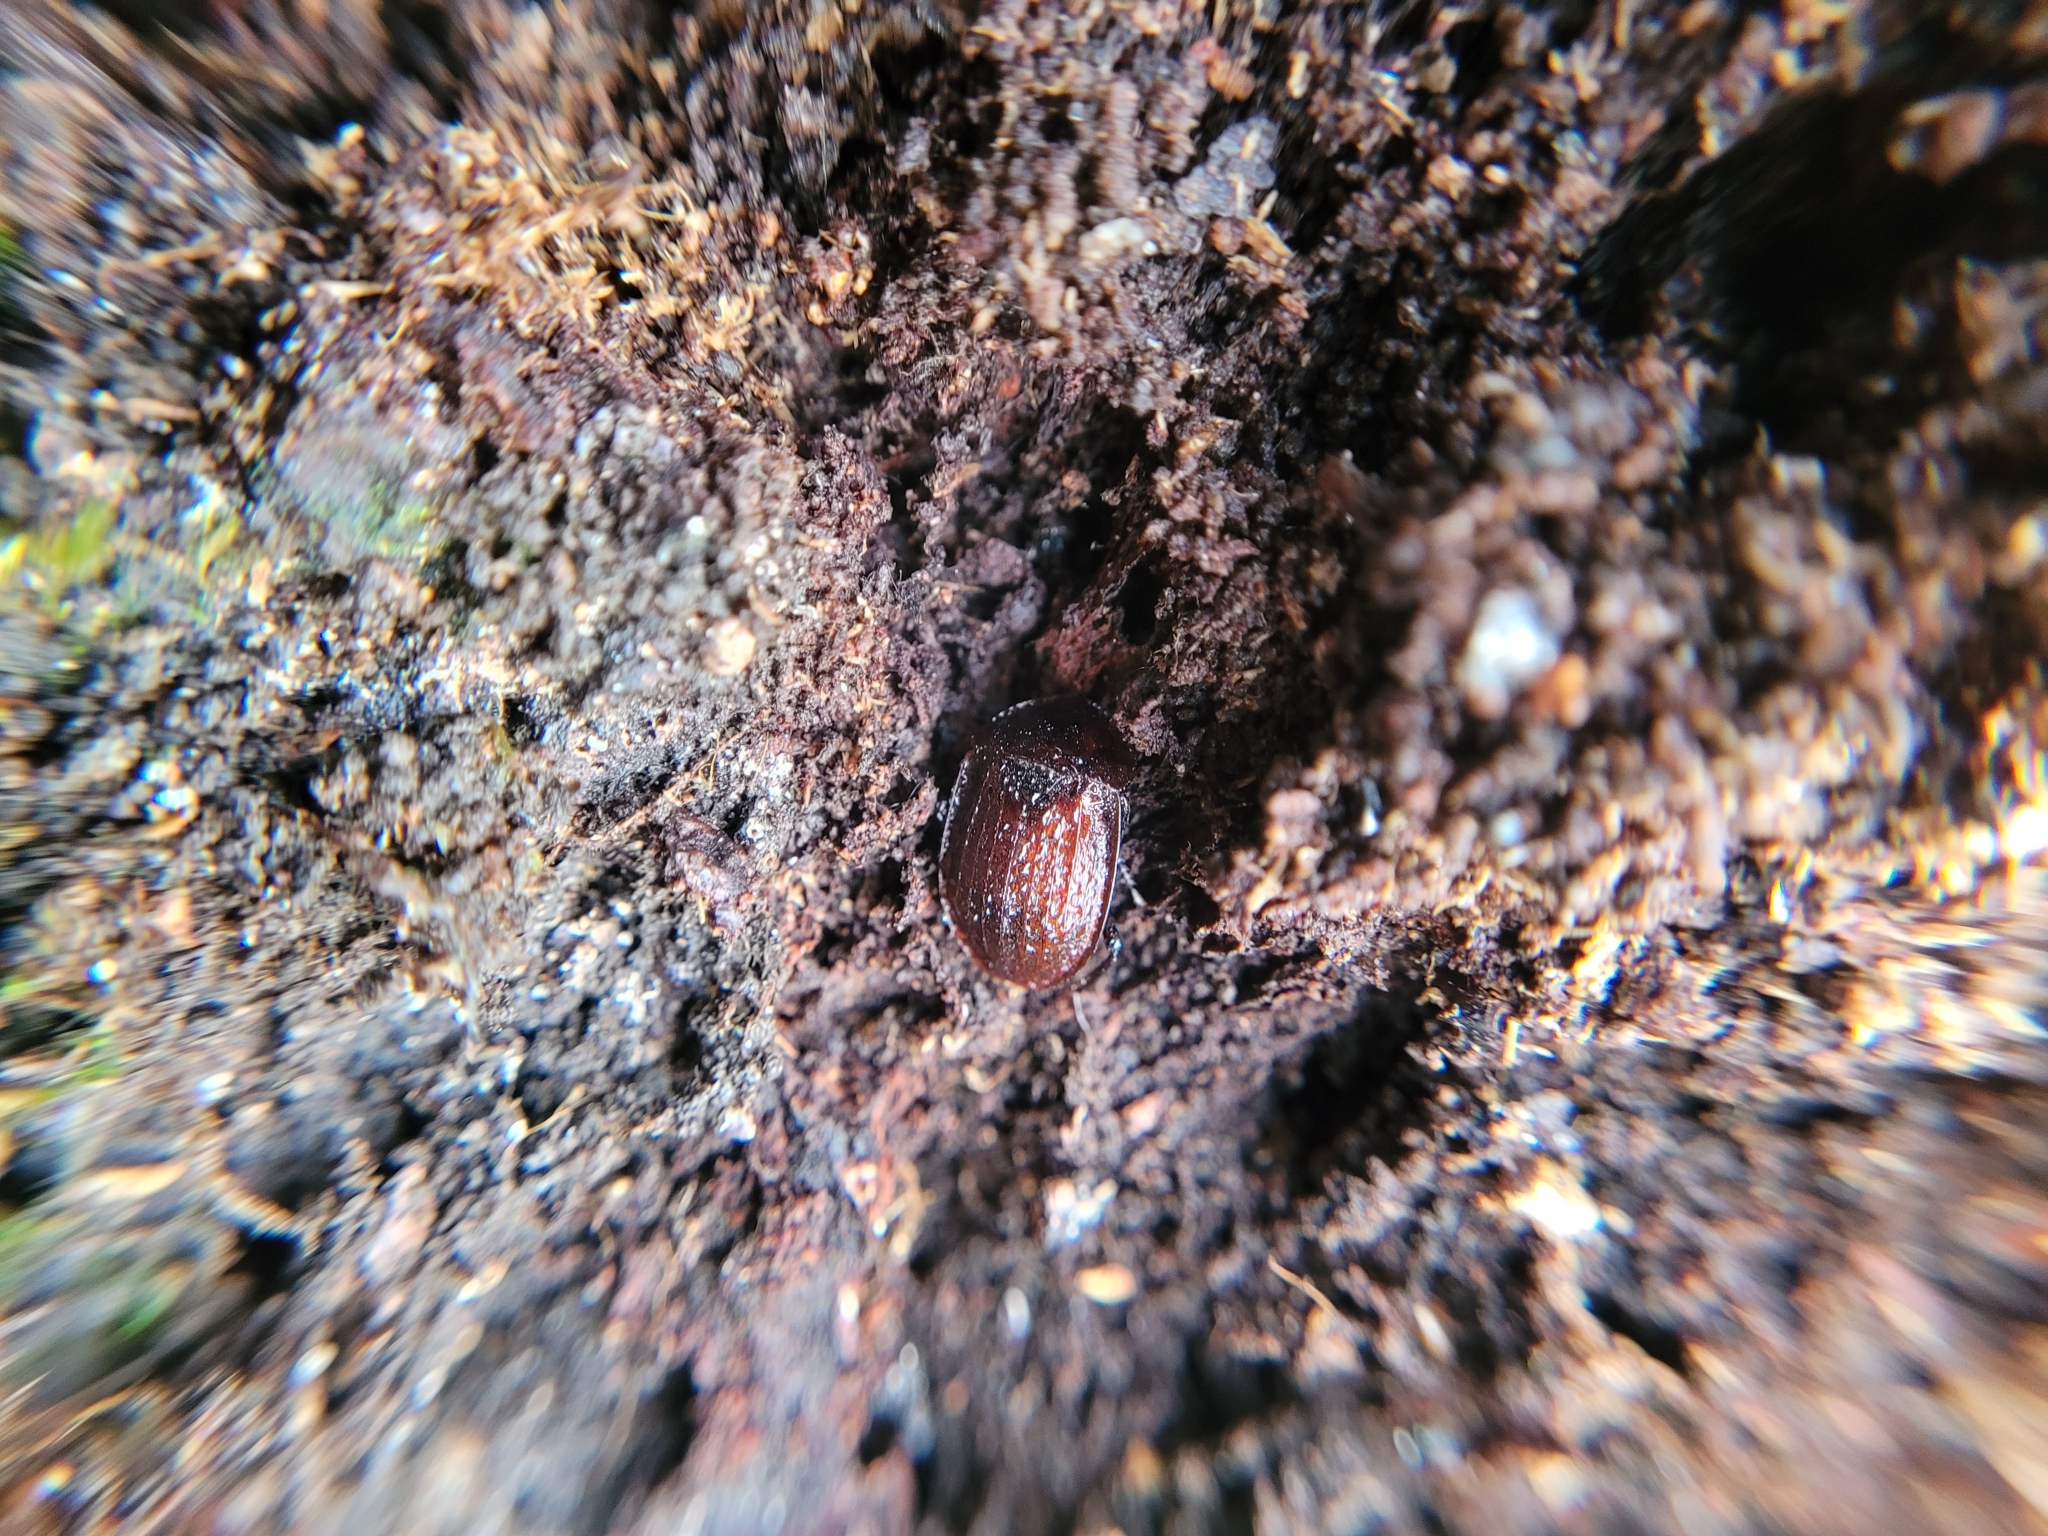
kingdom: Animalia
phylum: Arthropoda
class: Insecta
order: Coleoptera
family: Staphylinidae
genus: Silpha
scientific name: Silpha atrata
